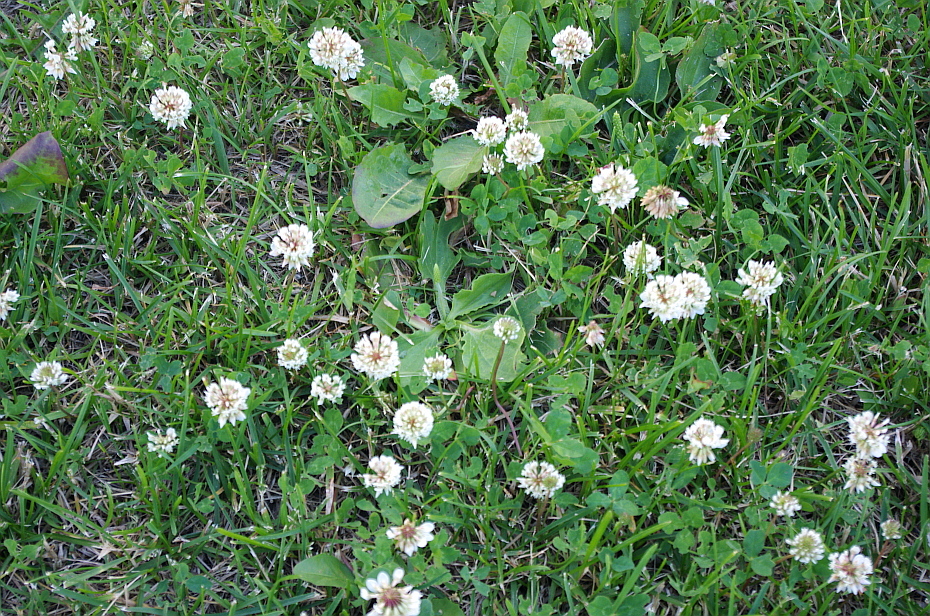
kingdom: Plantae
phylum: Tracheophyta
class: Magnoliopsida
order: Fabales
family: Fabaceae
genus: Trifolium
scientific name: Trifolium repens
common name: White clover
